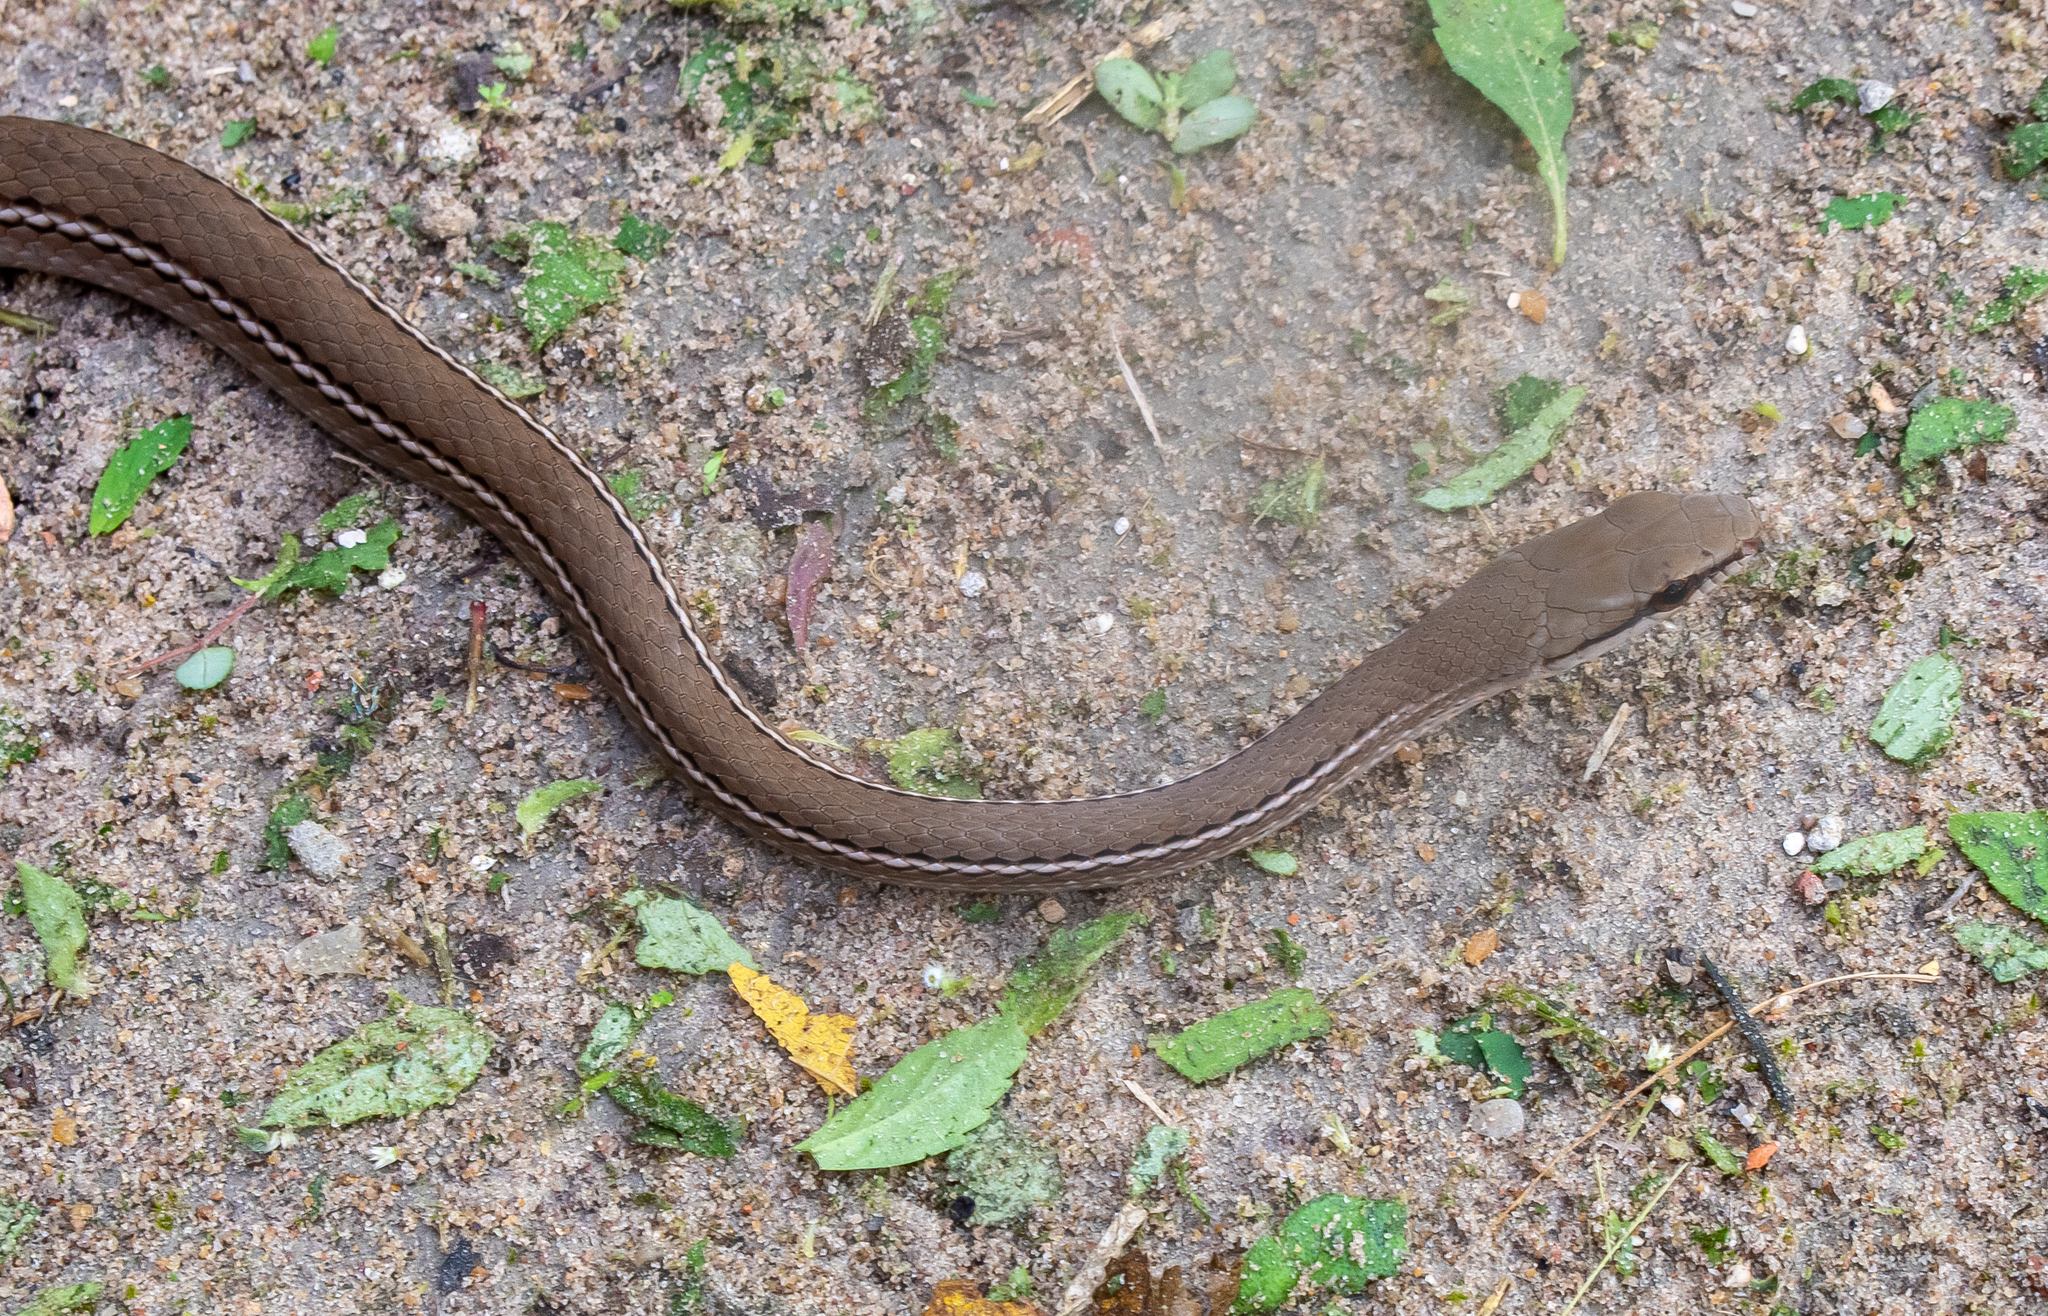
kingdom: Animalia
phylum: Chordata
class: Squamata
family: Colubridae
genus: Mastigodryas
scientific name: Mastigodryas boddaerti
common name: Boddaert's tropical racer
